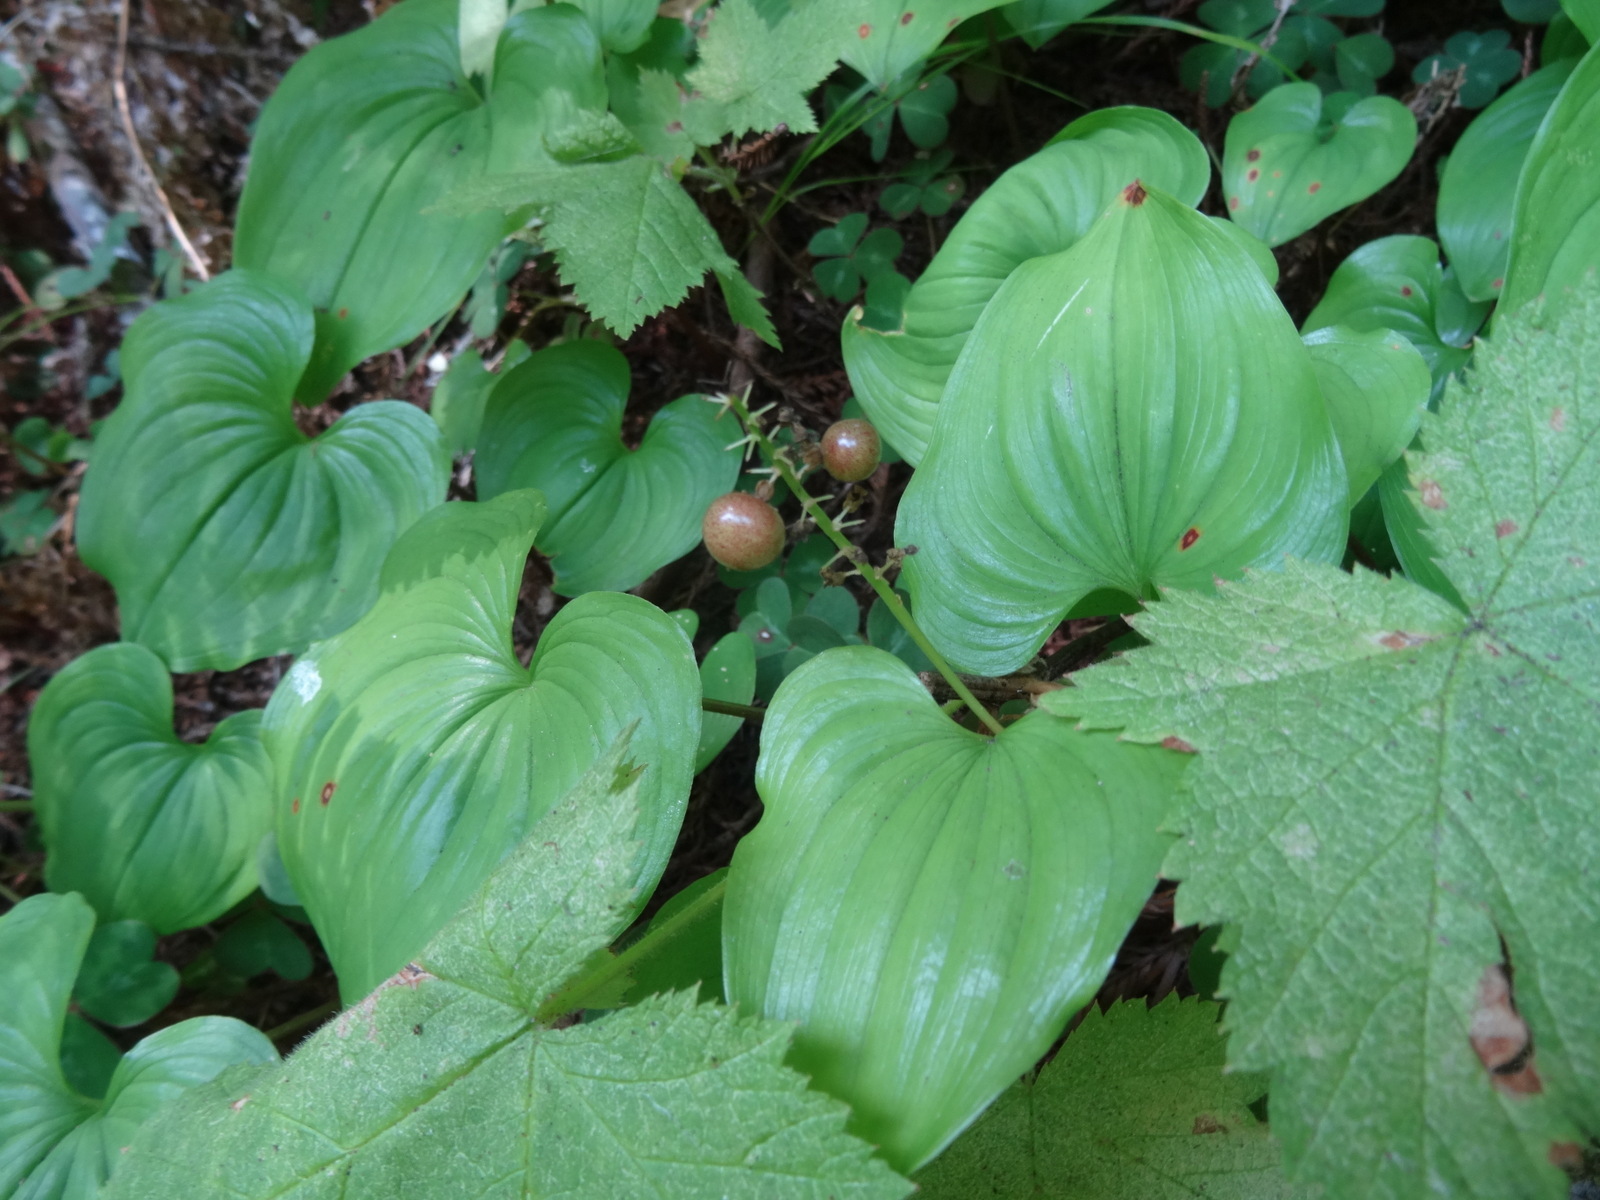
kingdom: Plantae
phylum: Tracheophyta
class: Liliopsida
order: Asparagales
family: Asparagaceae
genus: Maianthemum
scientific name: Maianthemum dilatatum
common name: False lily-of-the-valley
